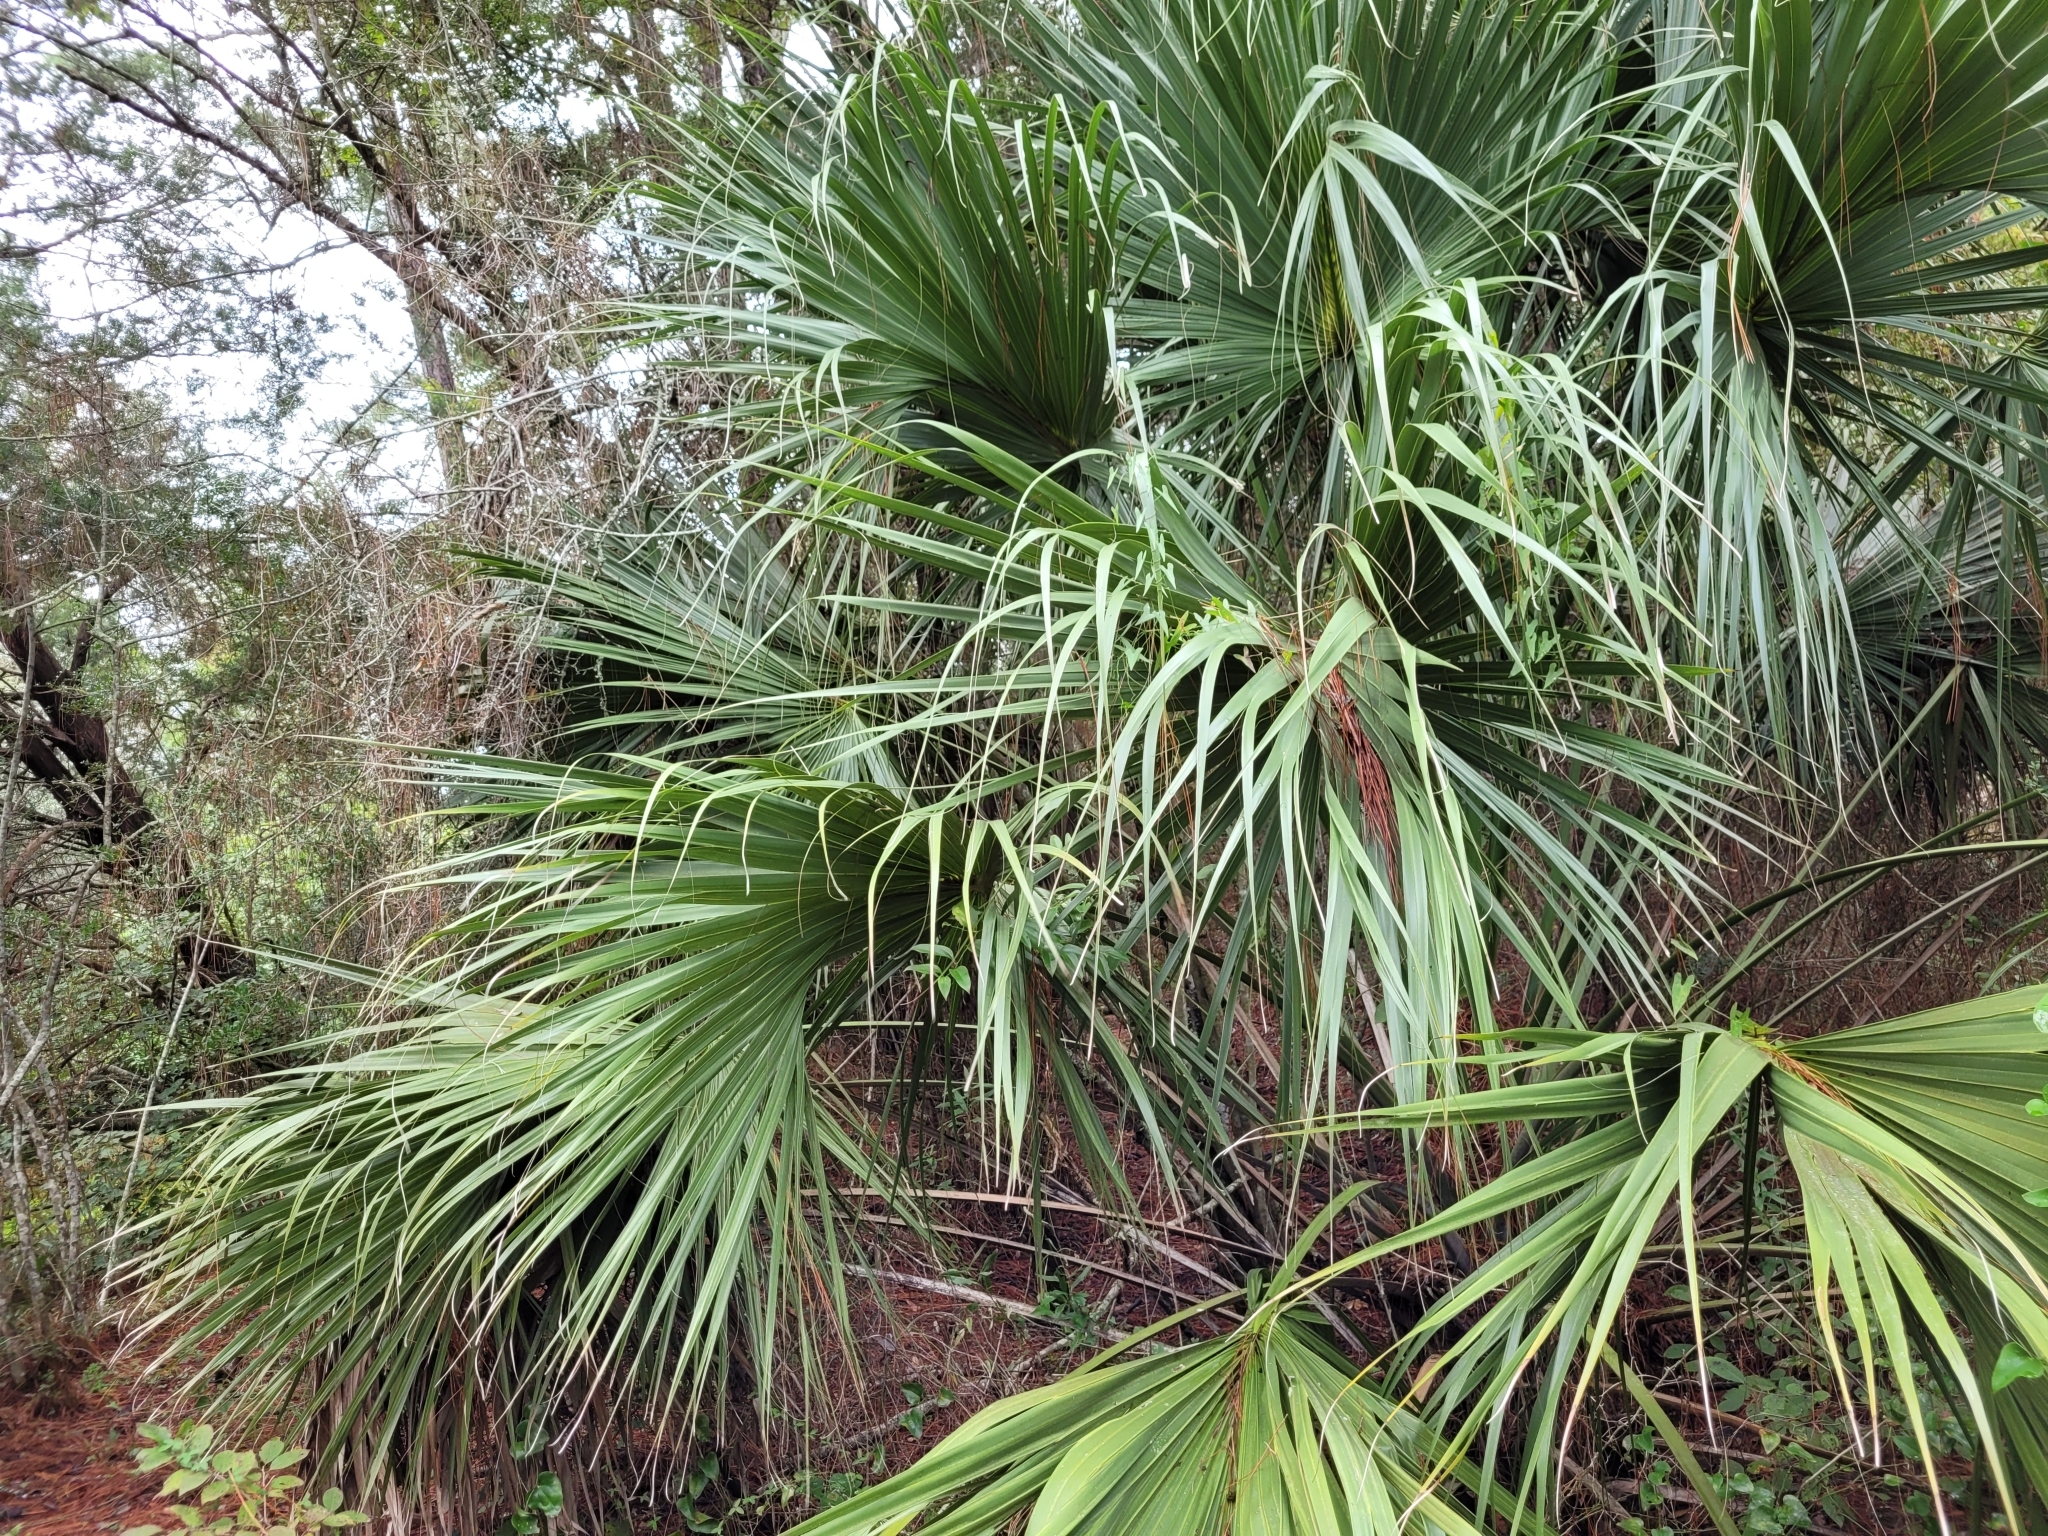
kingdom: Plantae
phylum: Tracheophyta
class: Liliopsida
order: Arecales
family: Arecaceae
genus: Sabal
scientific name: Sabal palmetto
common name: Blue palmetto
